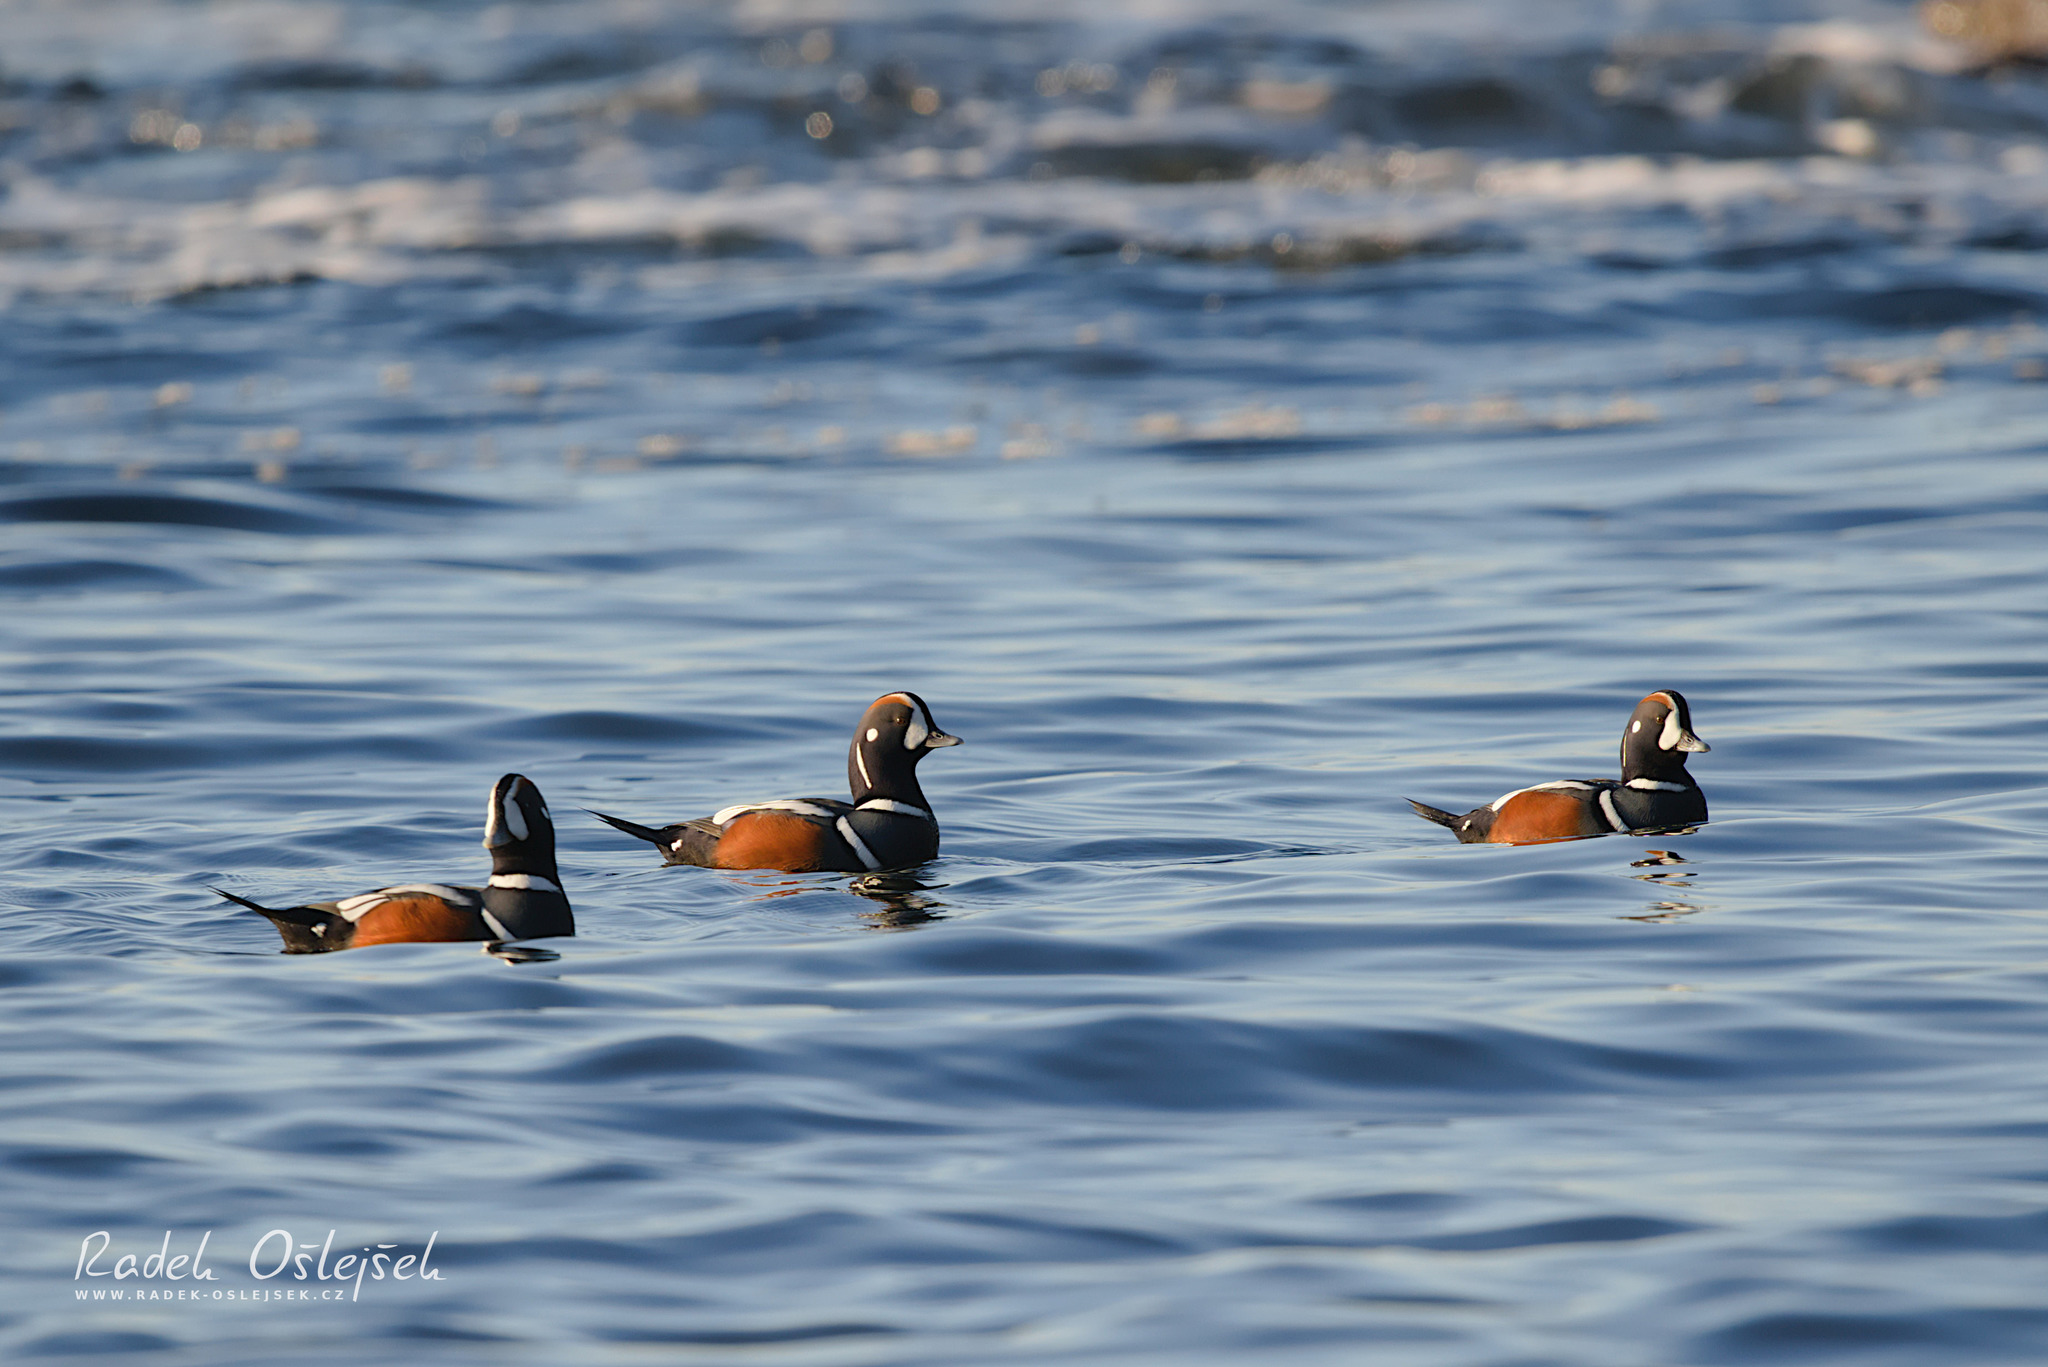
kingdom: Animalia
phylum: Chordata
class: Aves
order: Anseriformes
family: Anatidae
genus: Histrionicus
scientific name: Histrionicus histrionicus
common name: Harlequin duck
